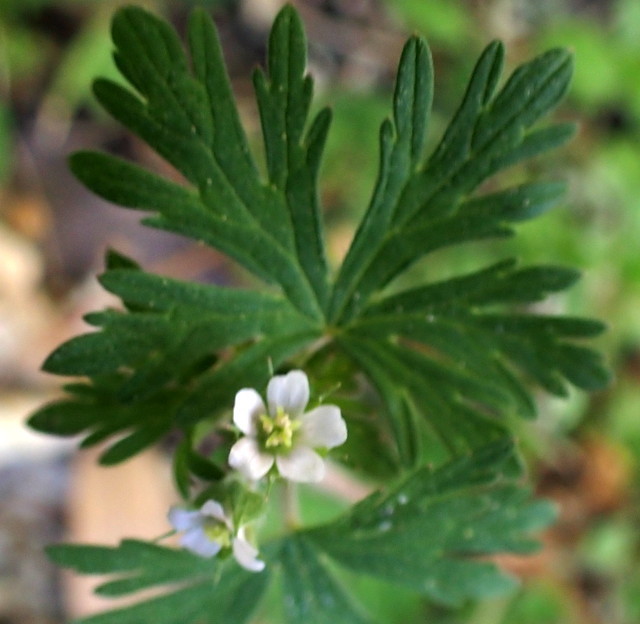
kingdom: Plantae
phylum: Tracheophyta
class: Magnoliopsida
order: Geraniales
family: Geraniaceae
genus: Geranium
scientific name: Geranium carolinianum
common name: Carolina crane's-bill
